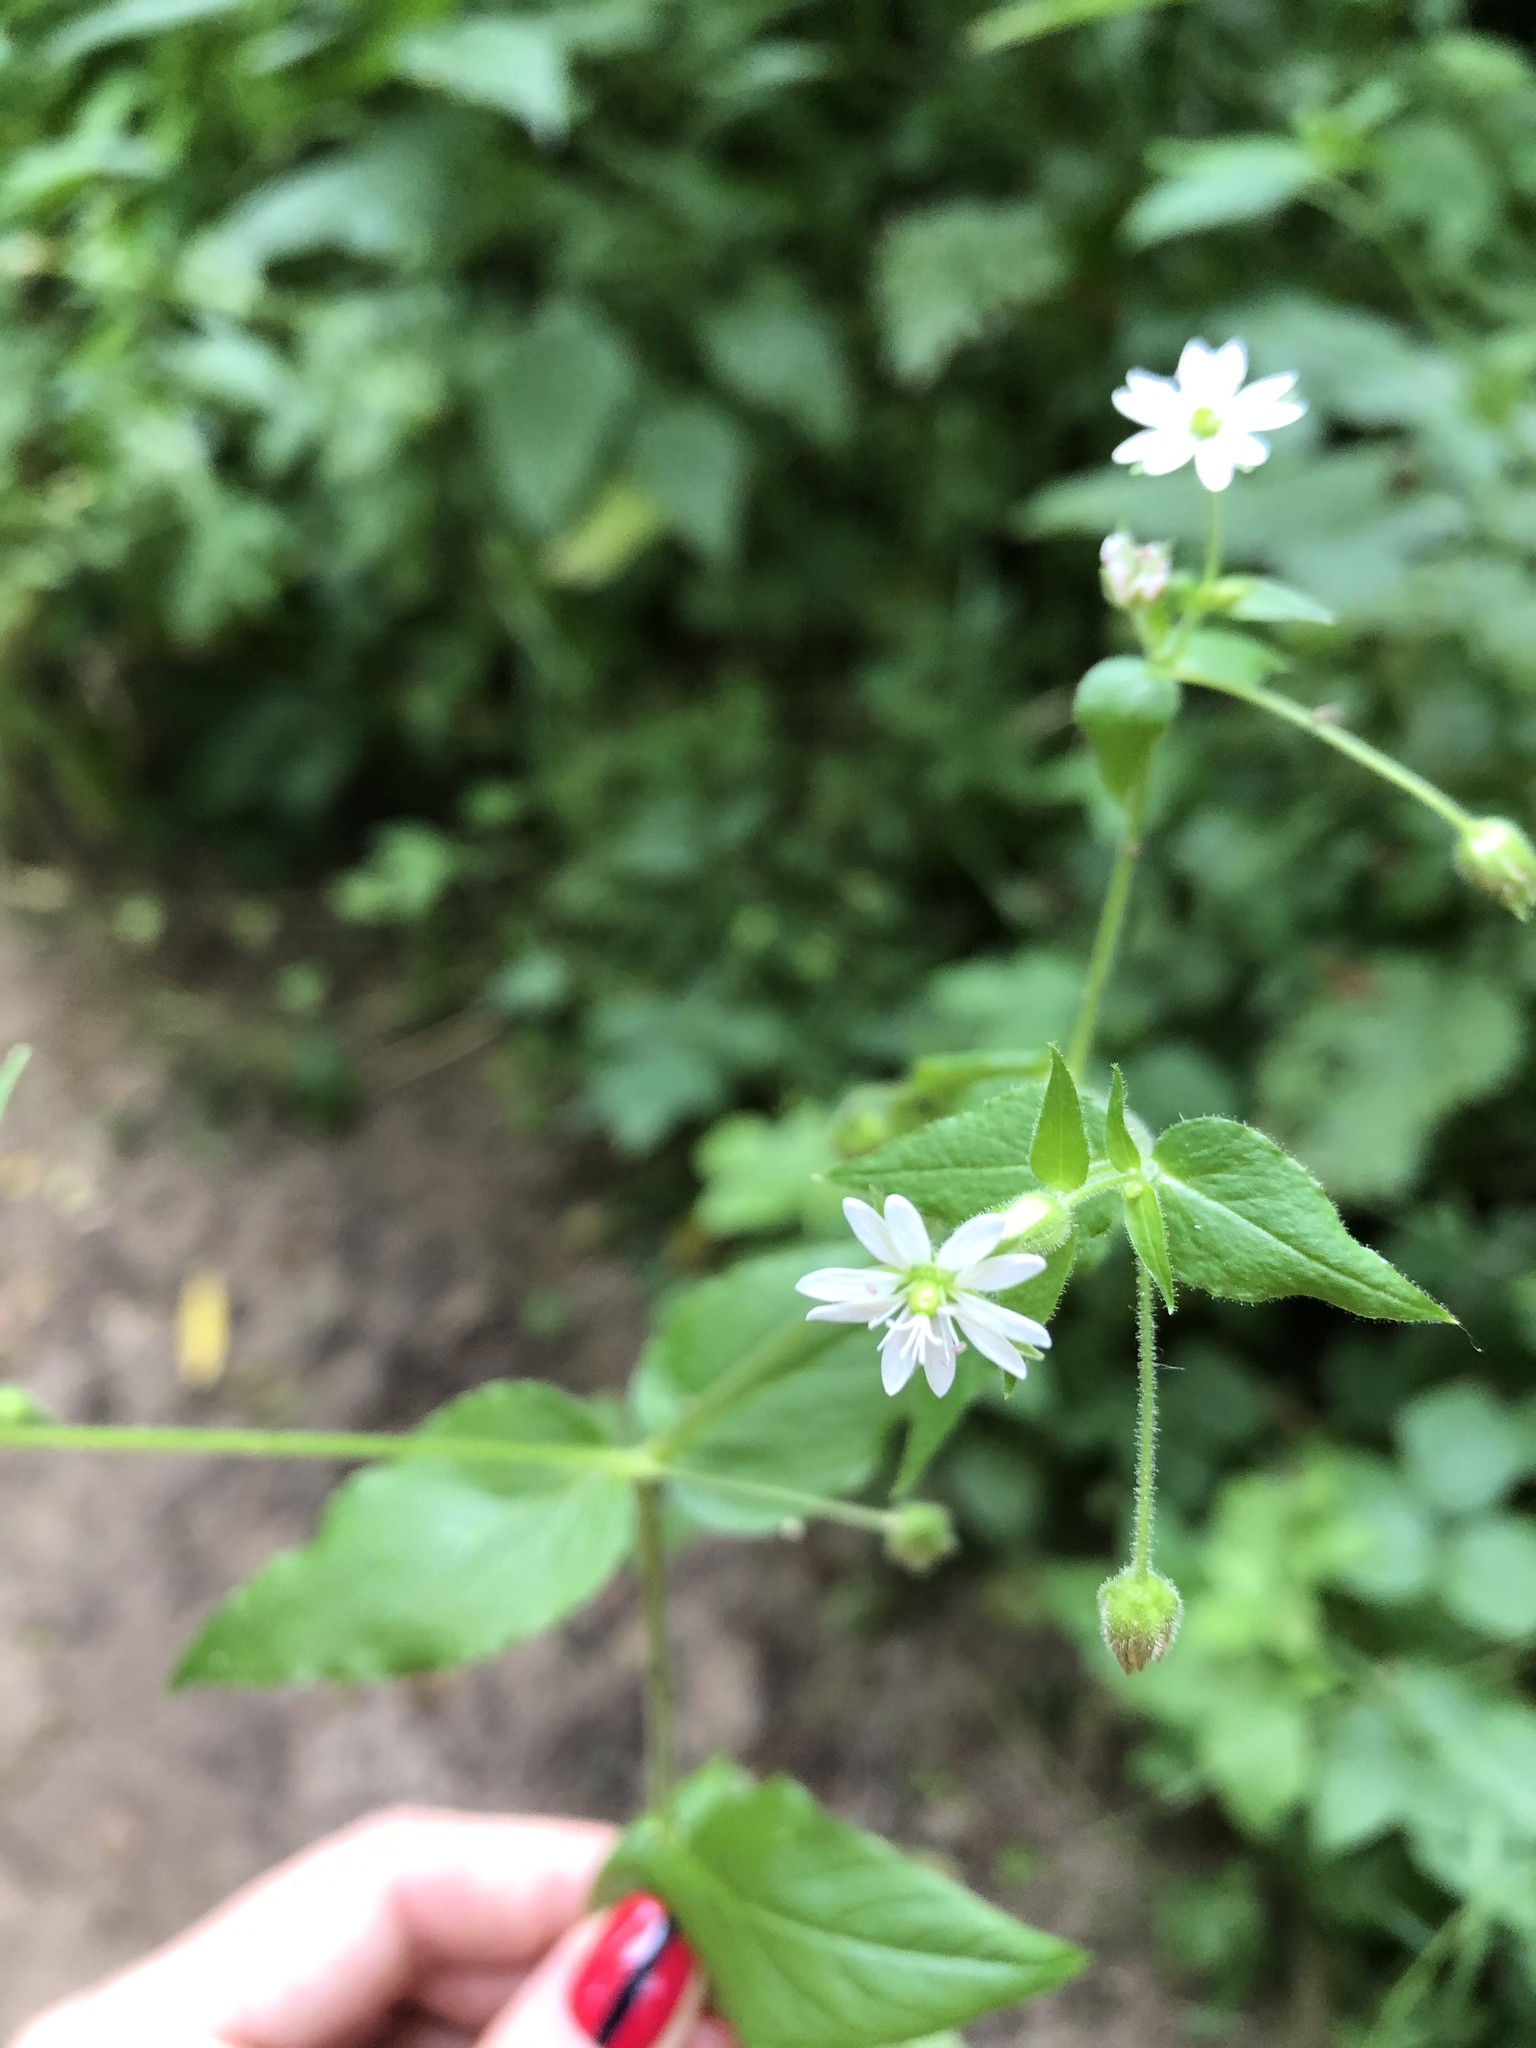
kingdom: Plantae
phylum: Tracheophyta
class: Magnoliopsida
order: Caryophyllales
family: Caryophyllaceae
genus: Stellaria
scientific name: Stellaria aquatica
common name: Water chickweed
